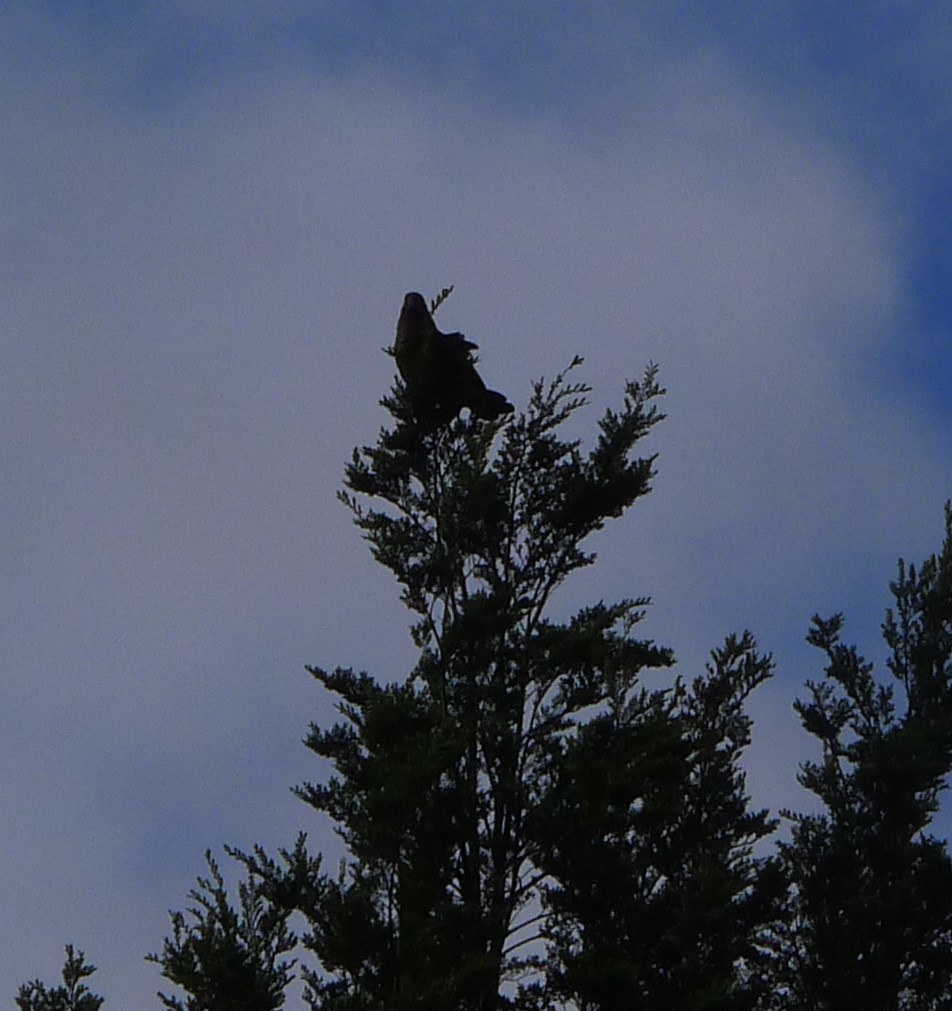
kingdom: Animalia
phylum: Chordata
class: Aves
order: Psittaciformes
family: Psittacidae
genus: Nestor
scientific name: Nestor notabilis
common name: Kea
